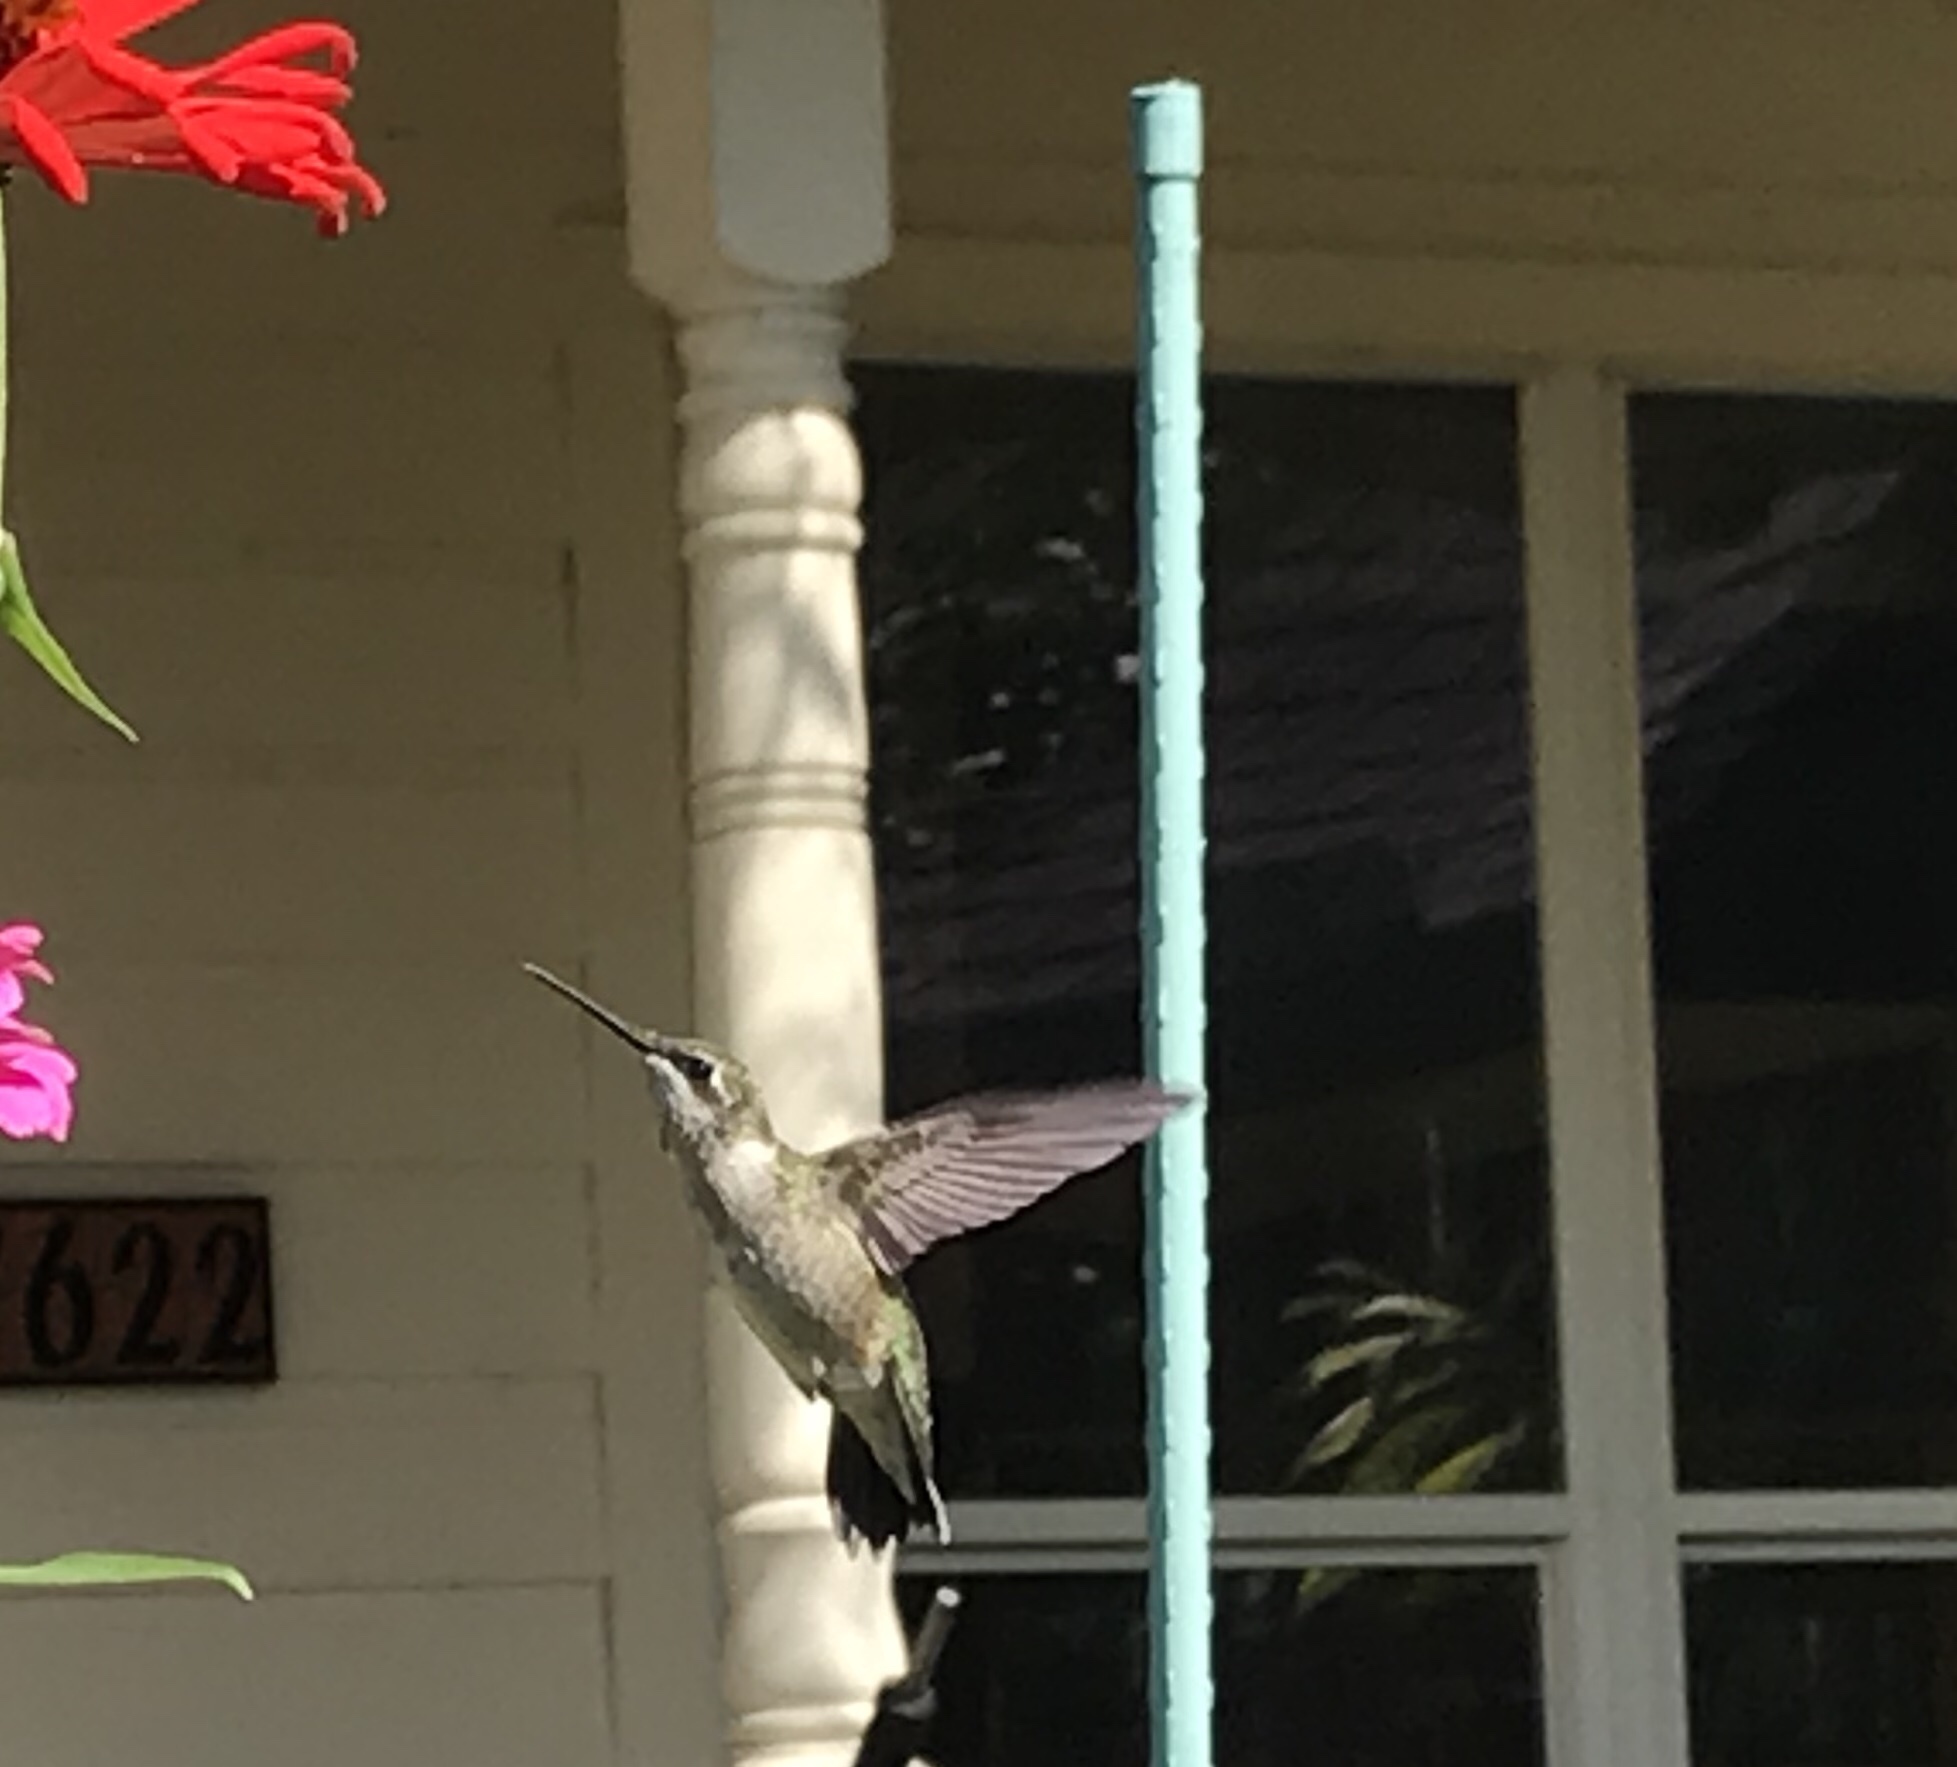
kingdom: Animalia
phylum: Chordata
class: Aves
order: Apodiformes
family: Trochilidae
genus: Archilochus
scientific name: Archilochus colubris
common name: Ruby-throated hummingbird
